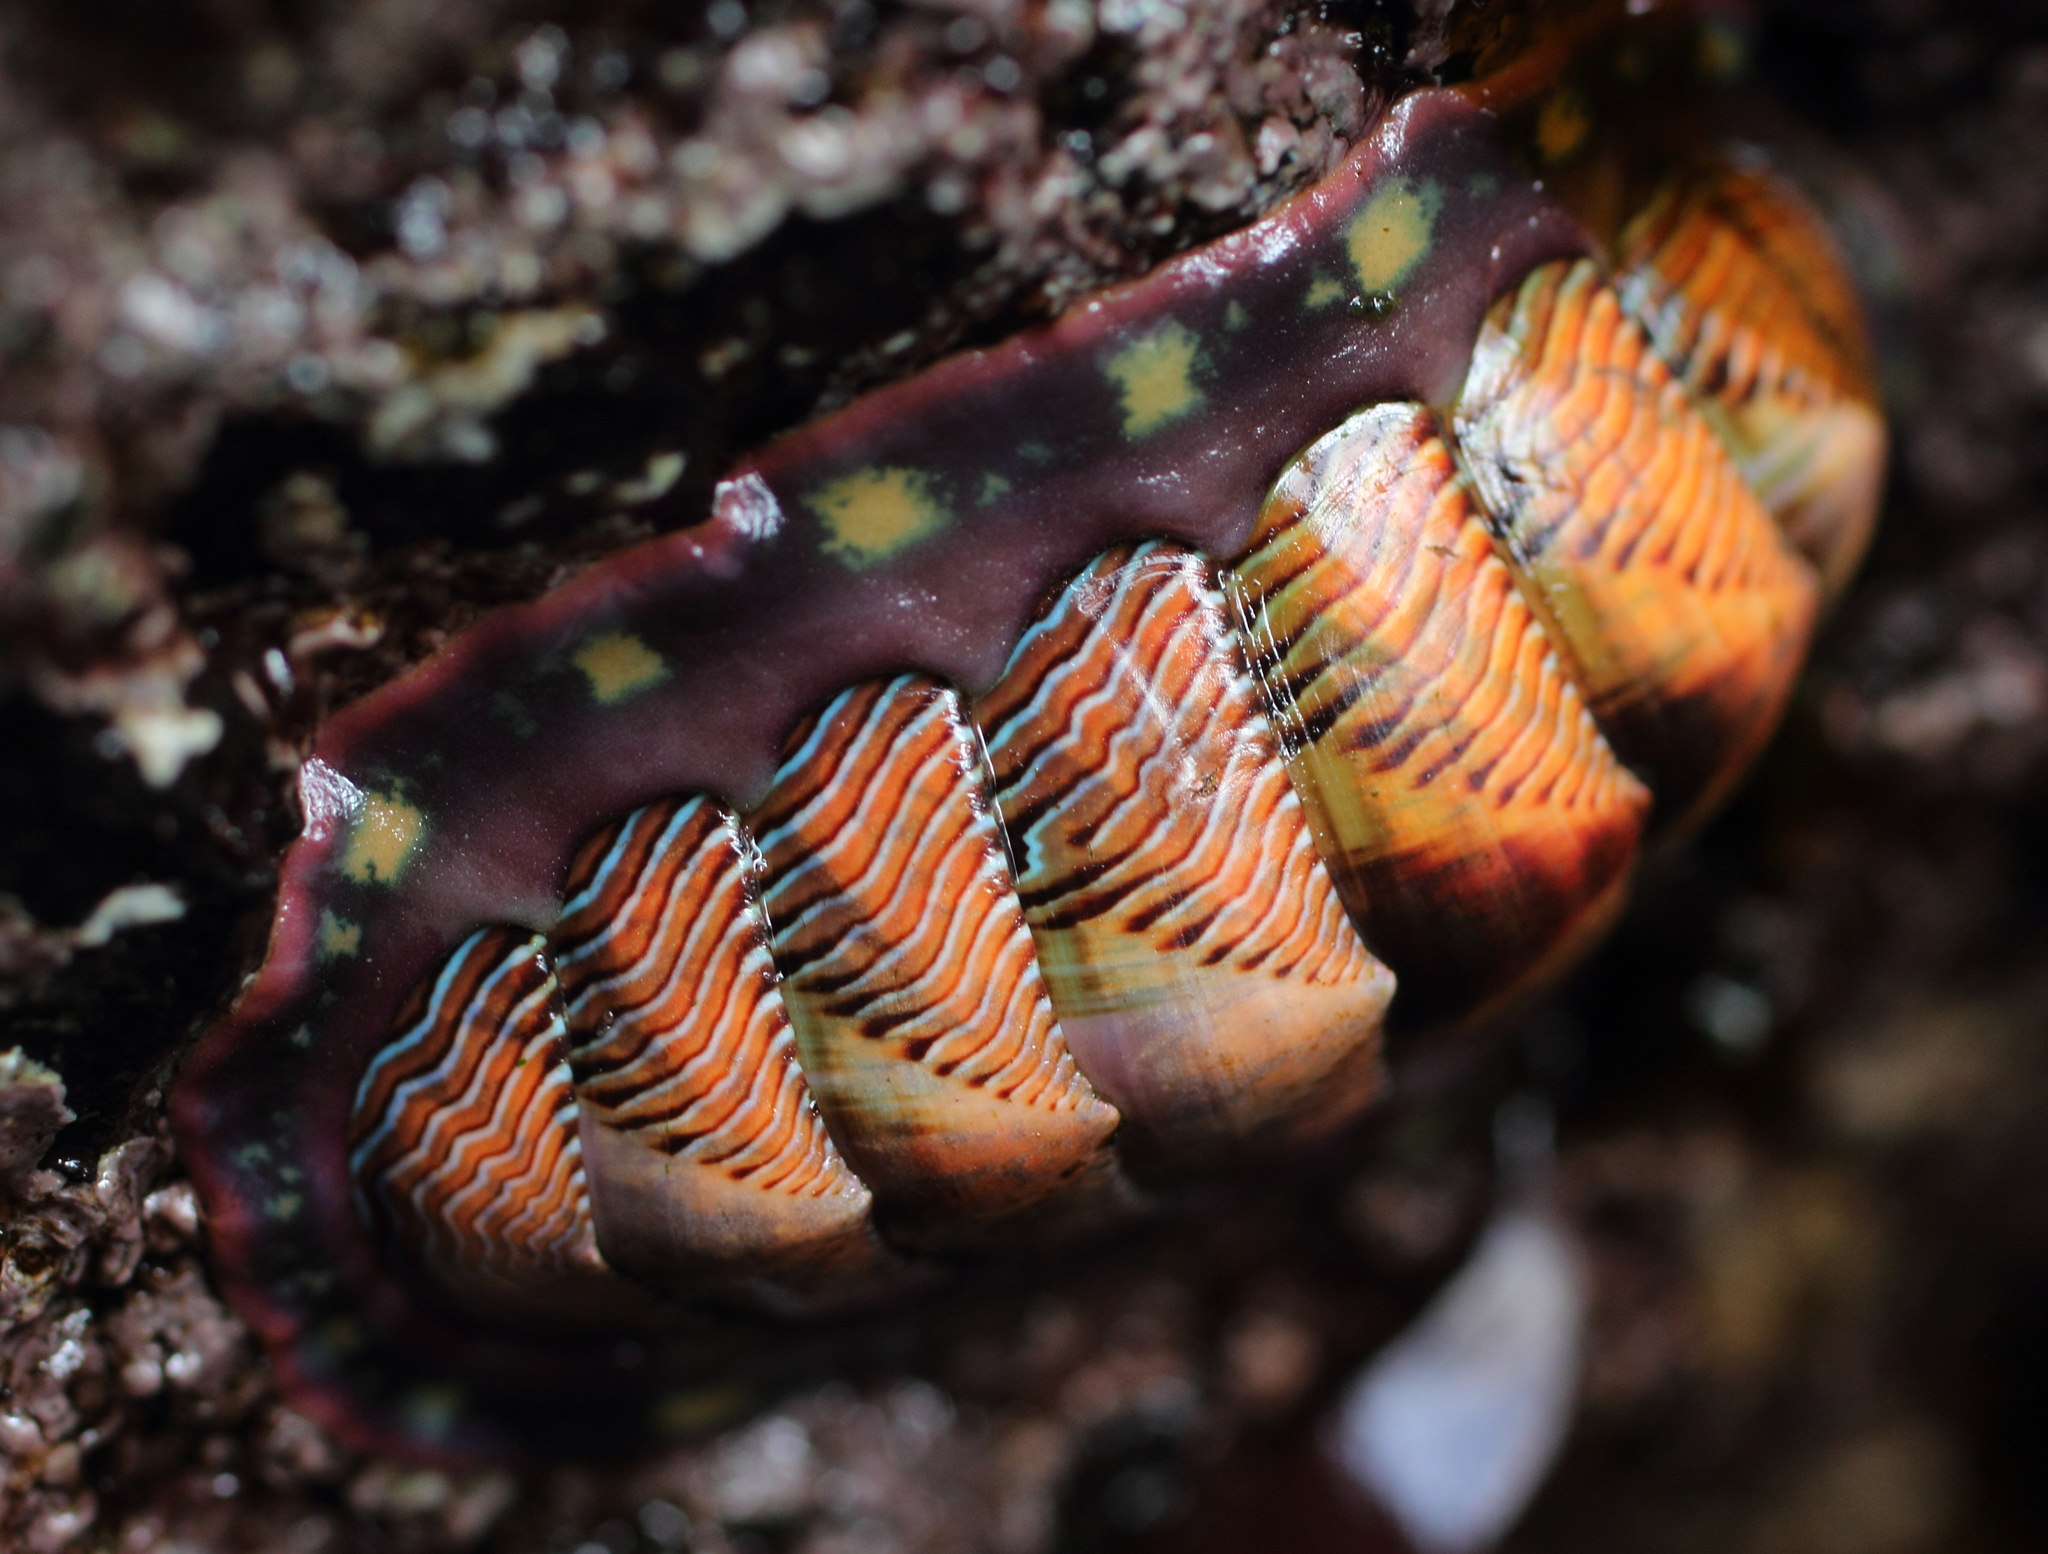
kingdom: Animalia
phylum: Mollusca
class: Polyplacophora
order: Chitonida
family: Tonicellidae
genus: Tonicella
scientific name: Tonicella lineata
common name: Lined chiton
